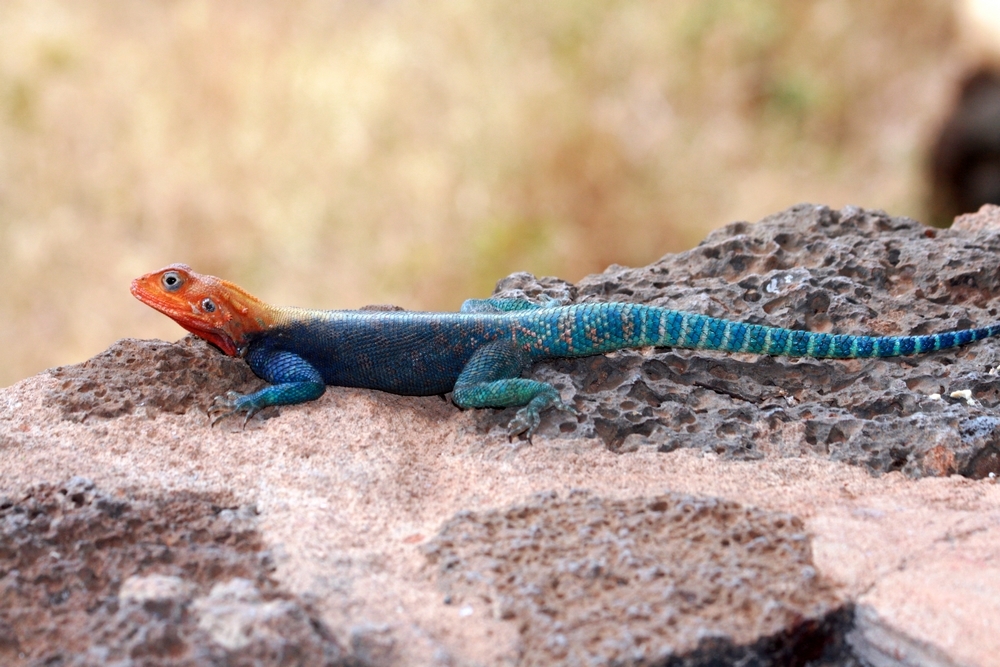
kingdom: Animalia
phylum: Chordata
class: Squamata
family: Agamidae
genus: Agama
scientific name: Agama lionotus
